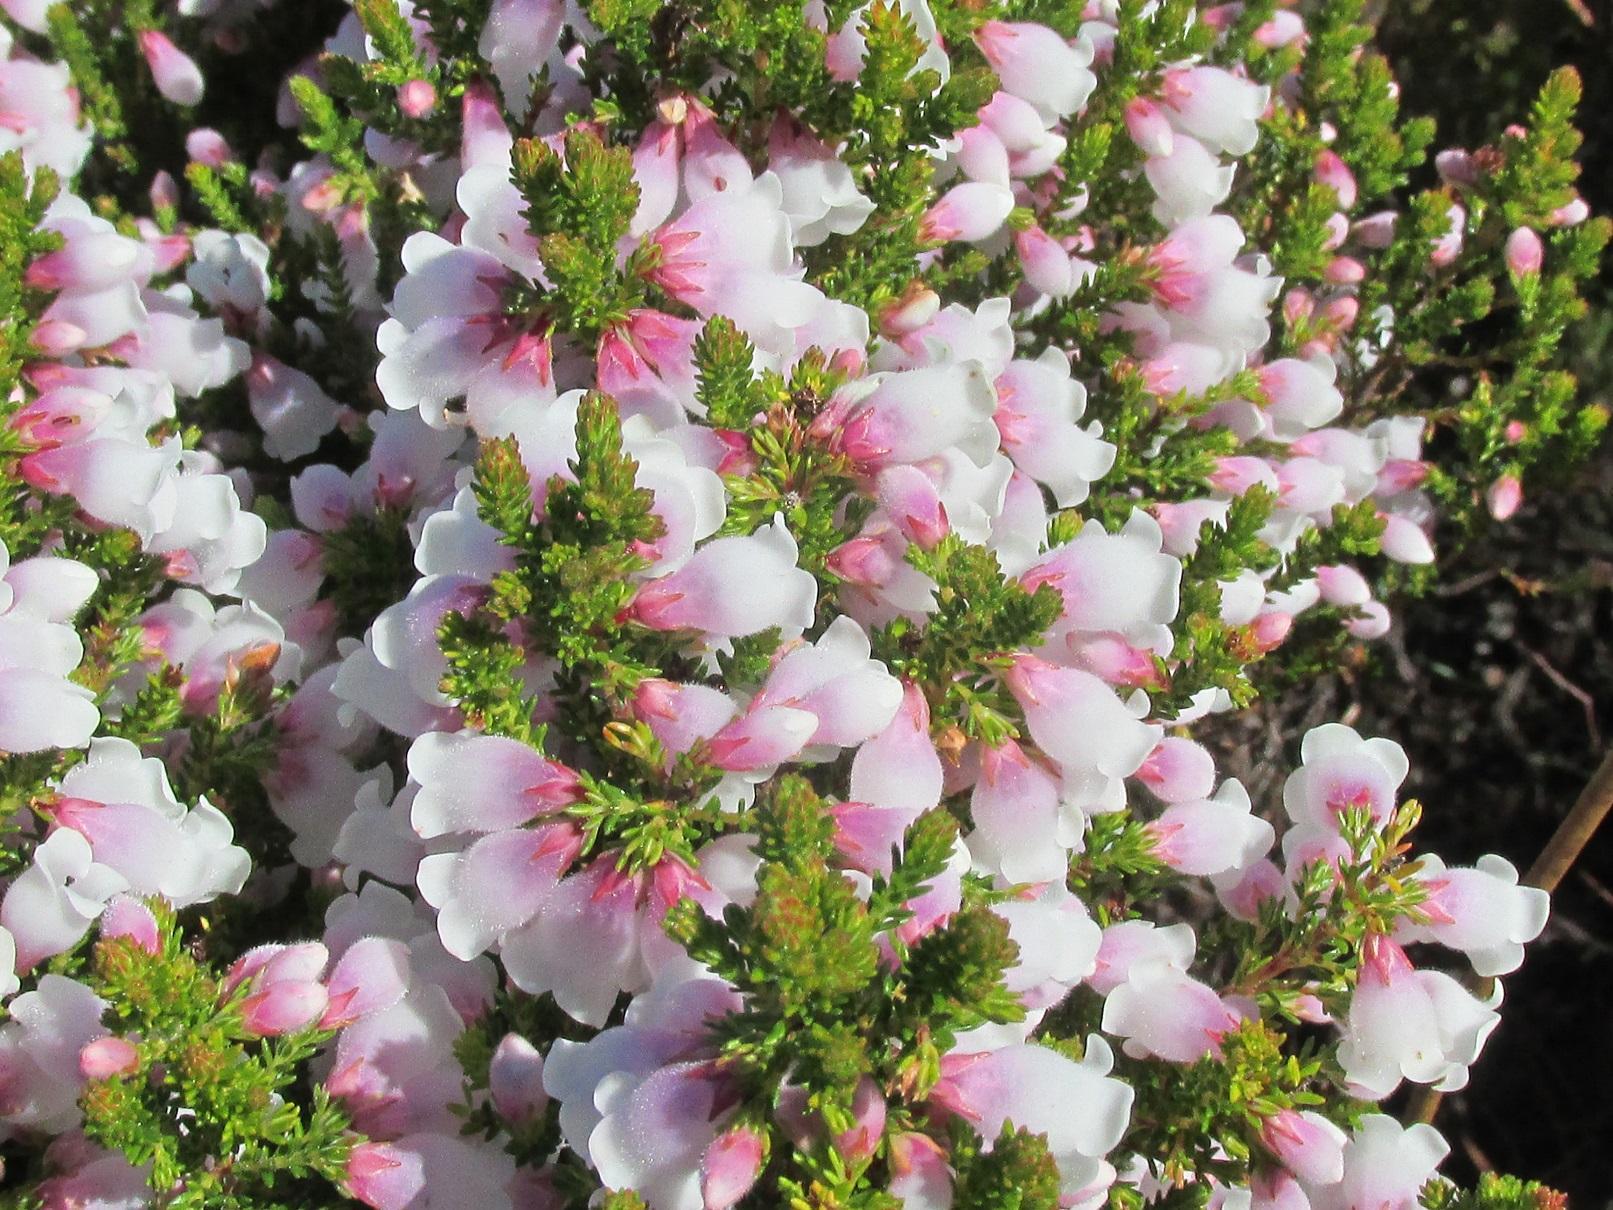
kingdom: Plantae
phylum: Tracheophyta
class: Magnoliopsida
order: Ericales
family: Ericaceae
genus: Erica
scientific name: Erica propendens
